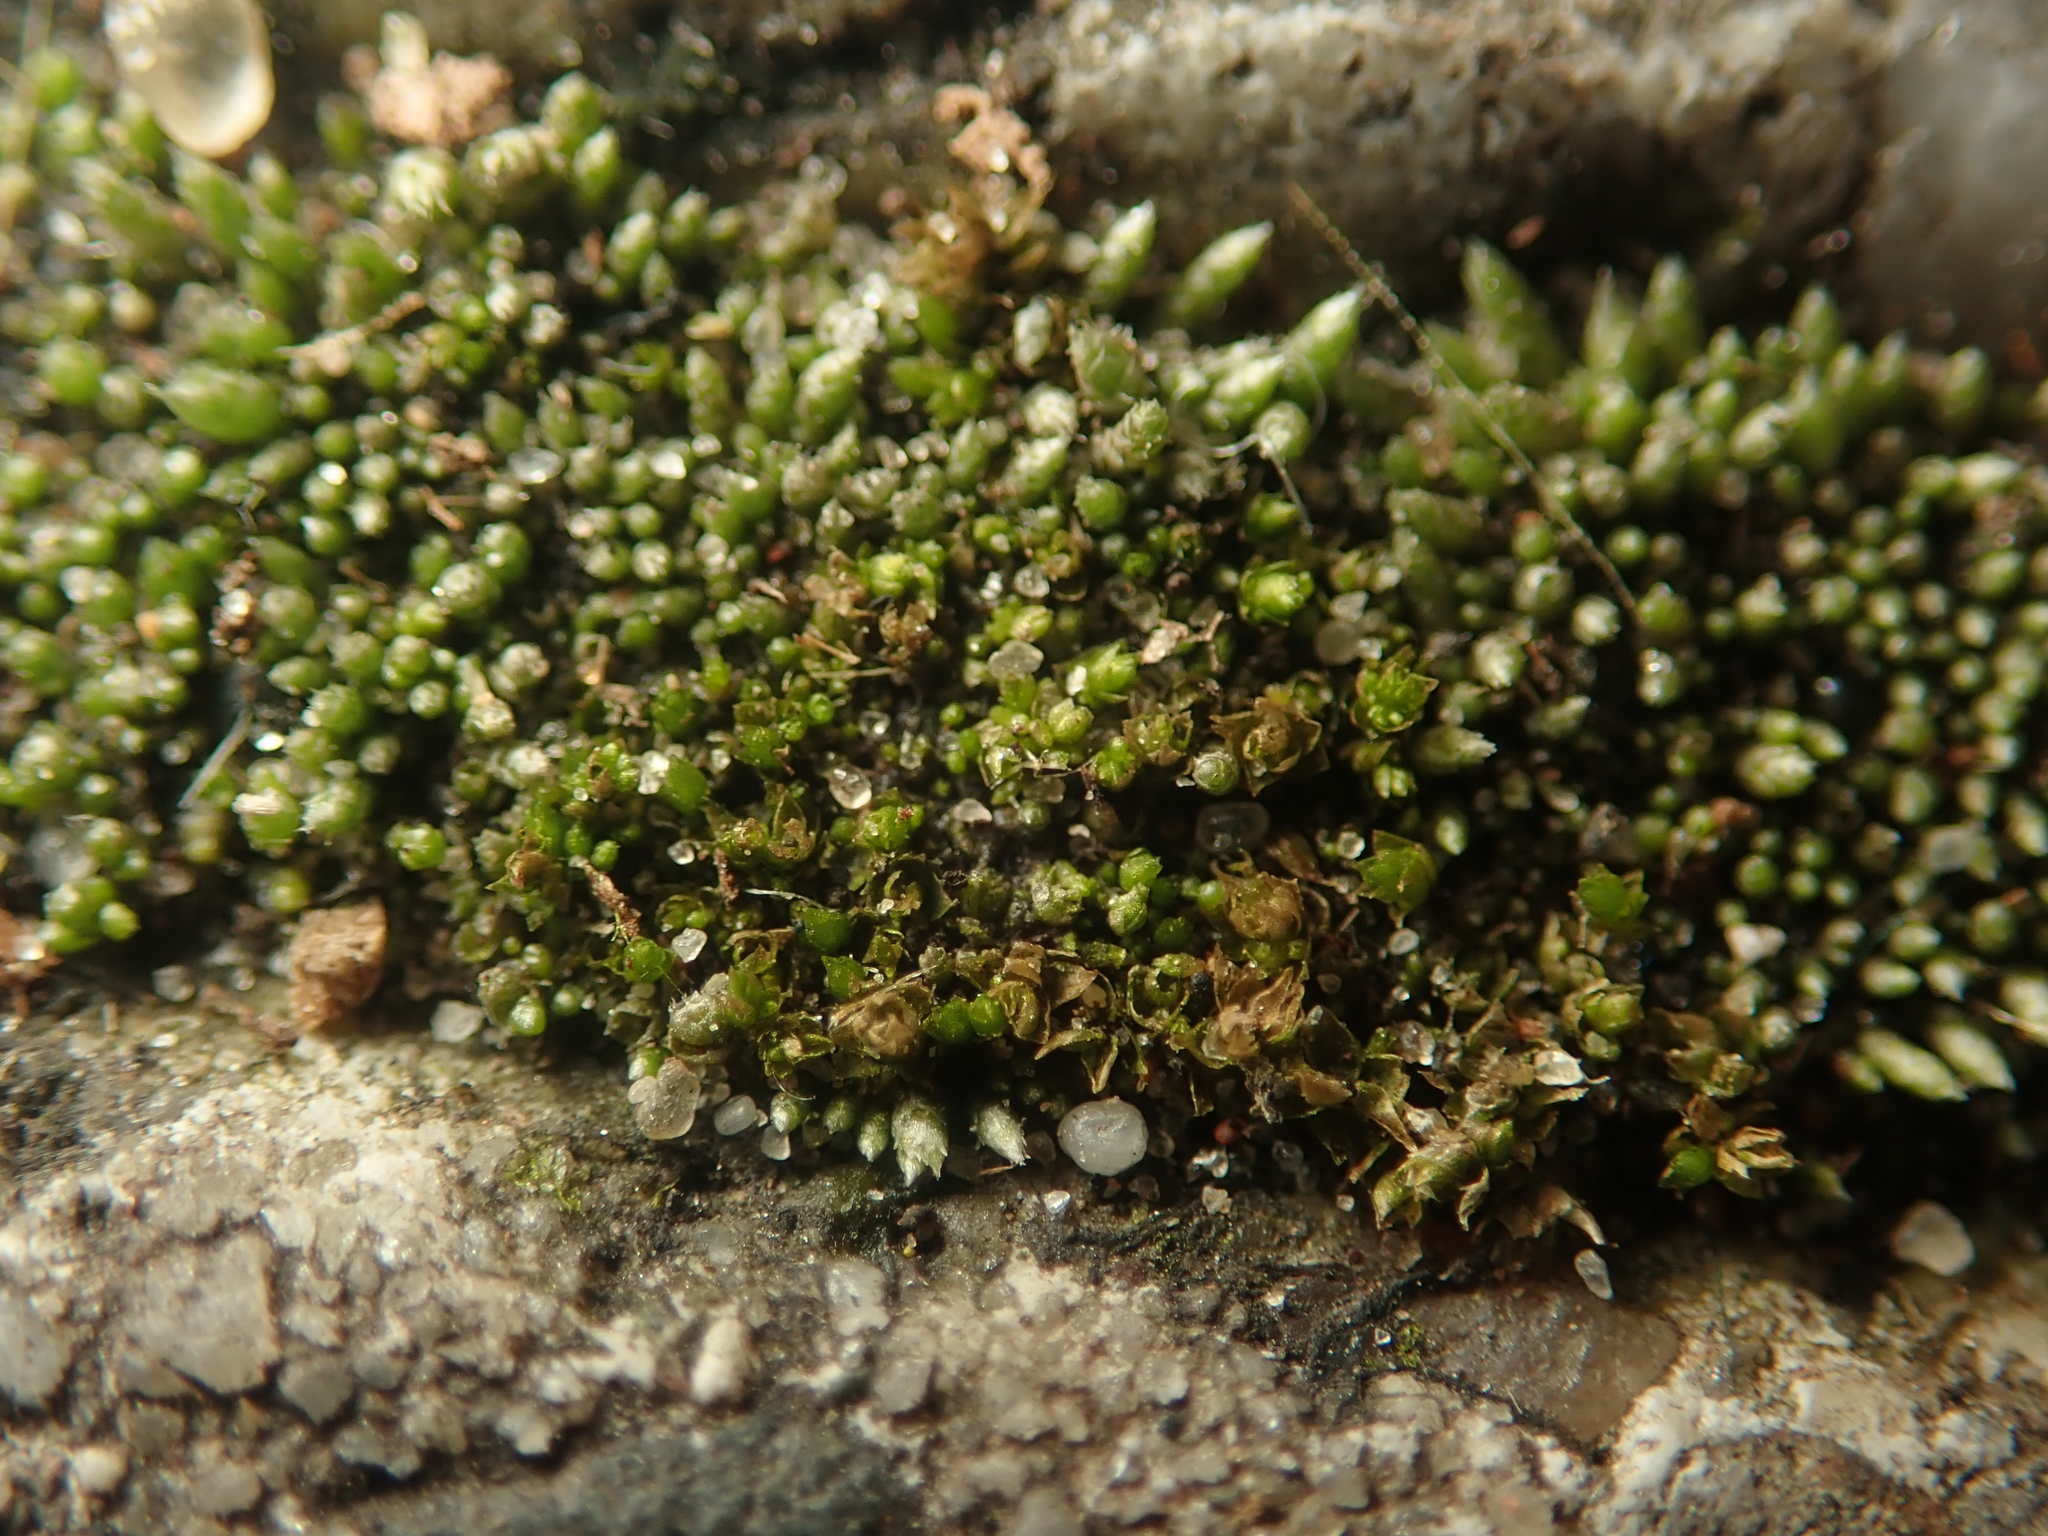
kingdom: Plantae
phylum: Bryophyta
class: Bryopsida
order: Bryales
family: Bryaceae
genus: Bryum
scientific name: Bryum argenteum
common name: Silver-moss
